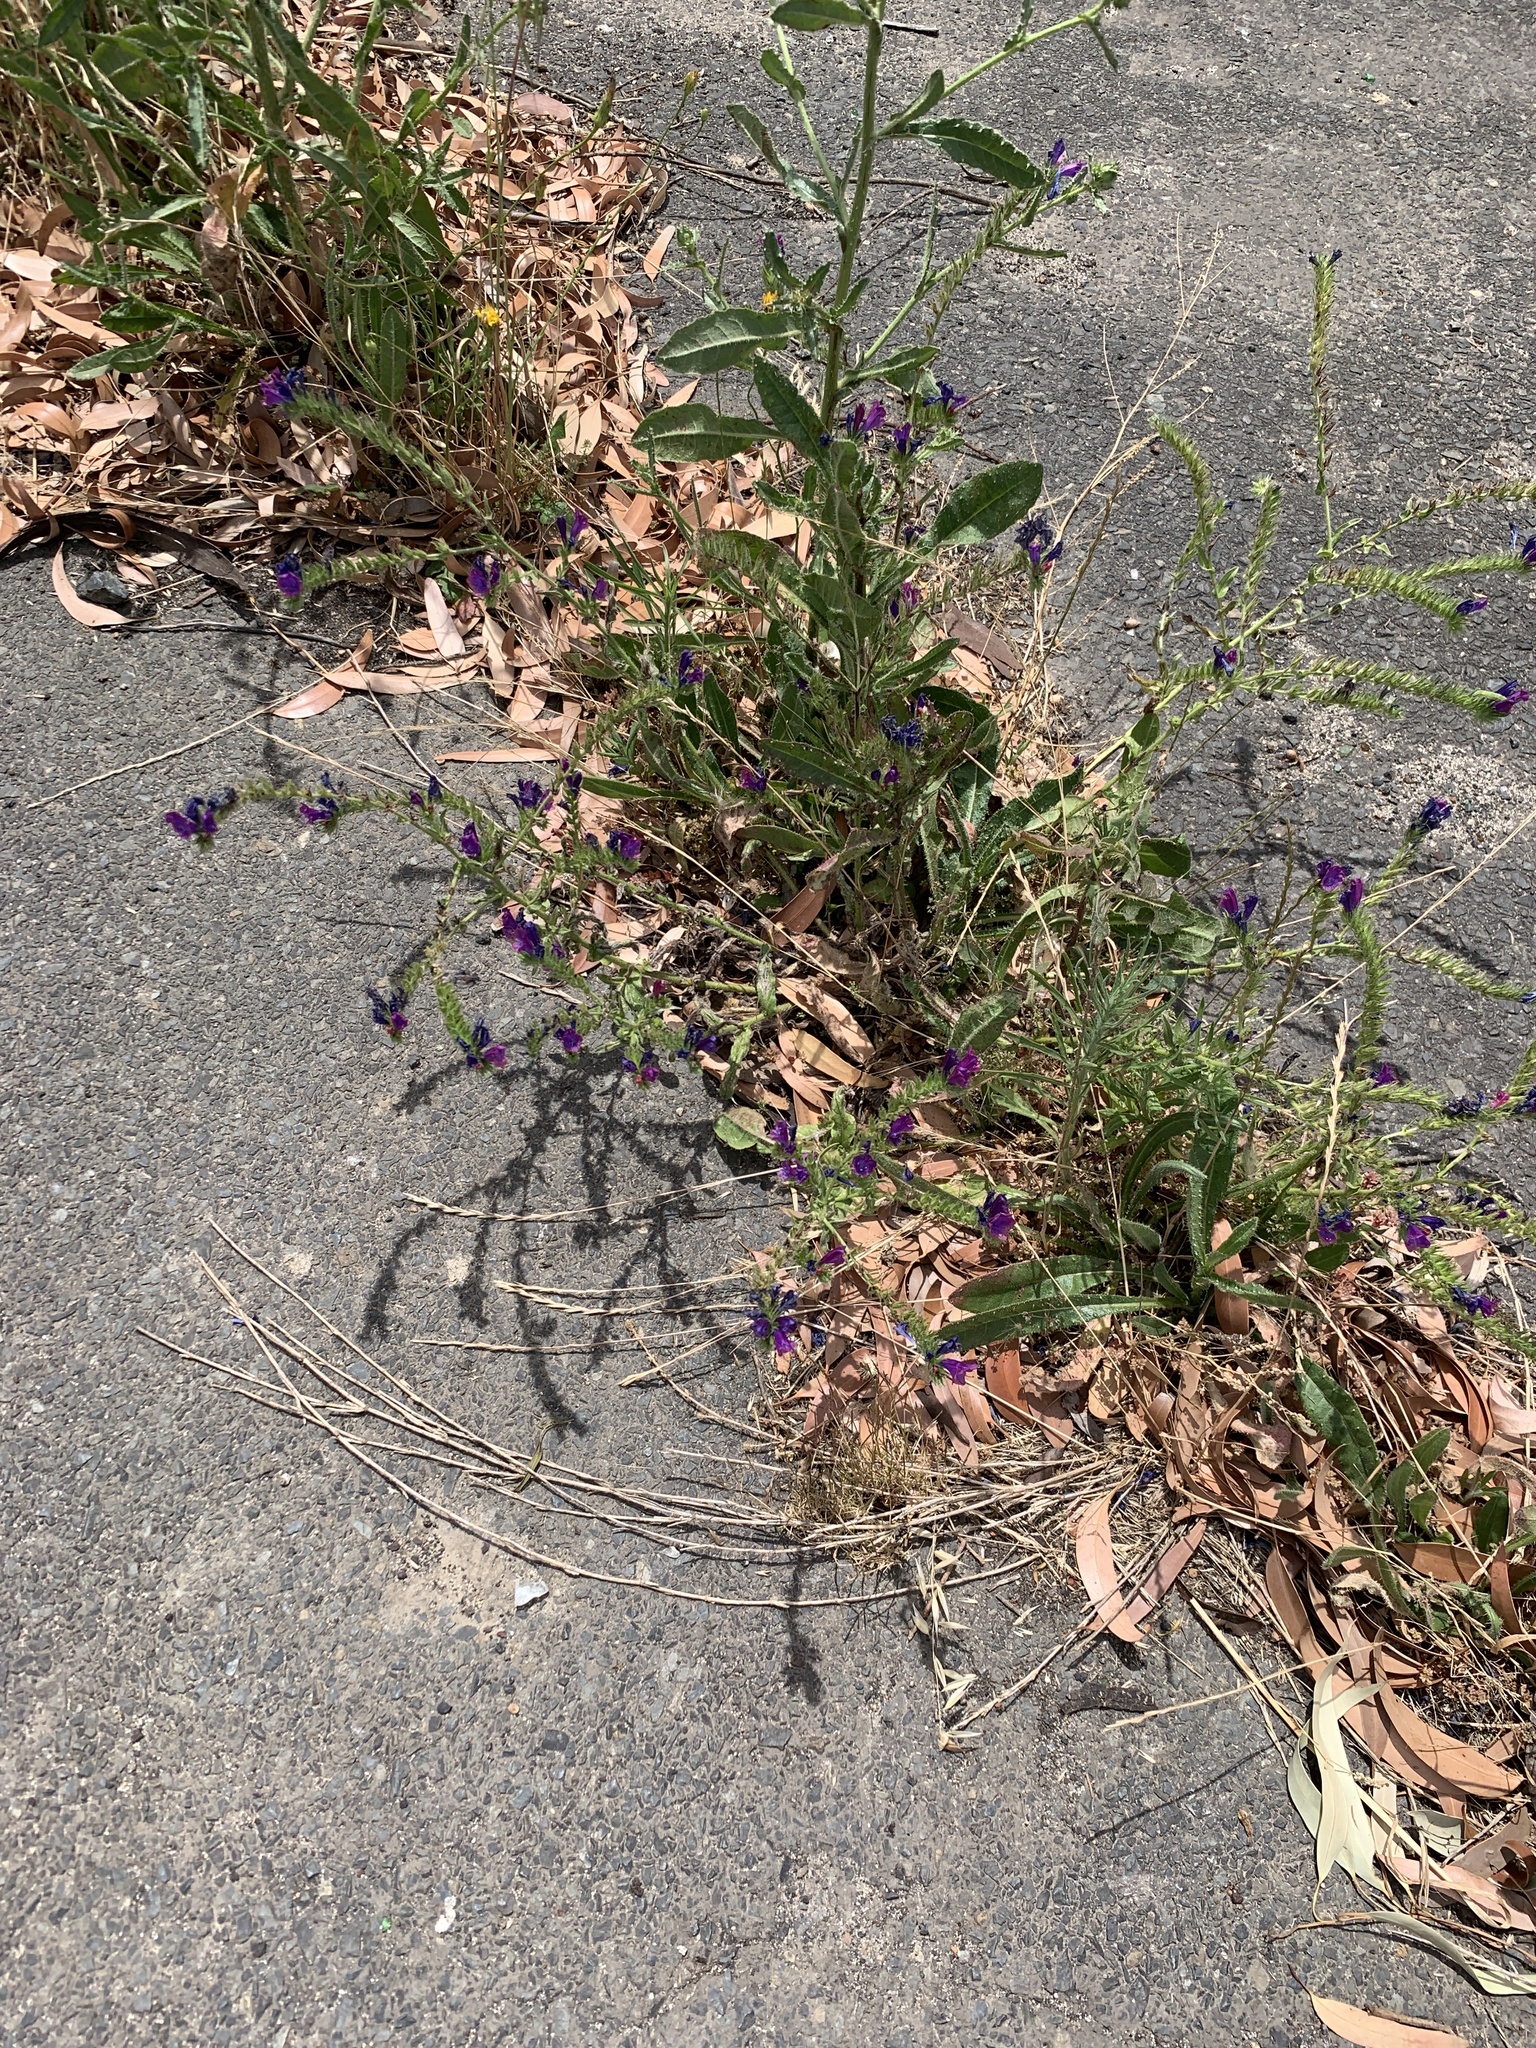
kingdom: Plantae
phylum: Tracheophyta
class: Magnoliopsida
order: Boraginales
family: Boraginaceae
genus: Echium
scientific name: Echium plantagineum
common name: Purple viper's-bugloss
